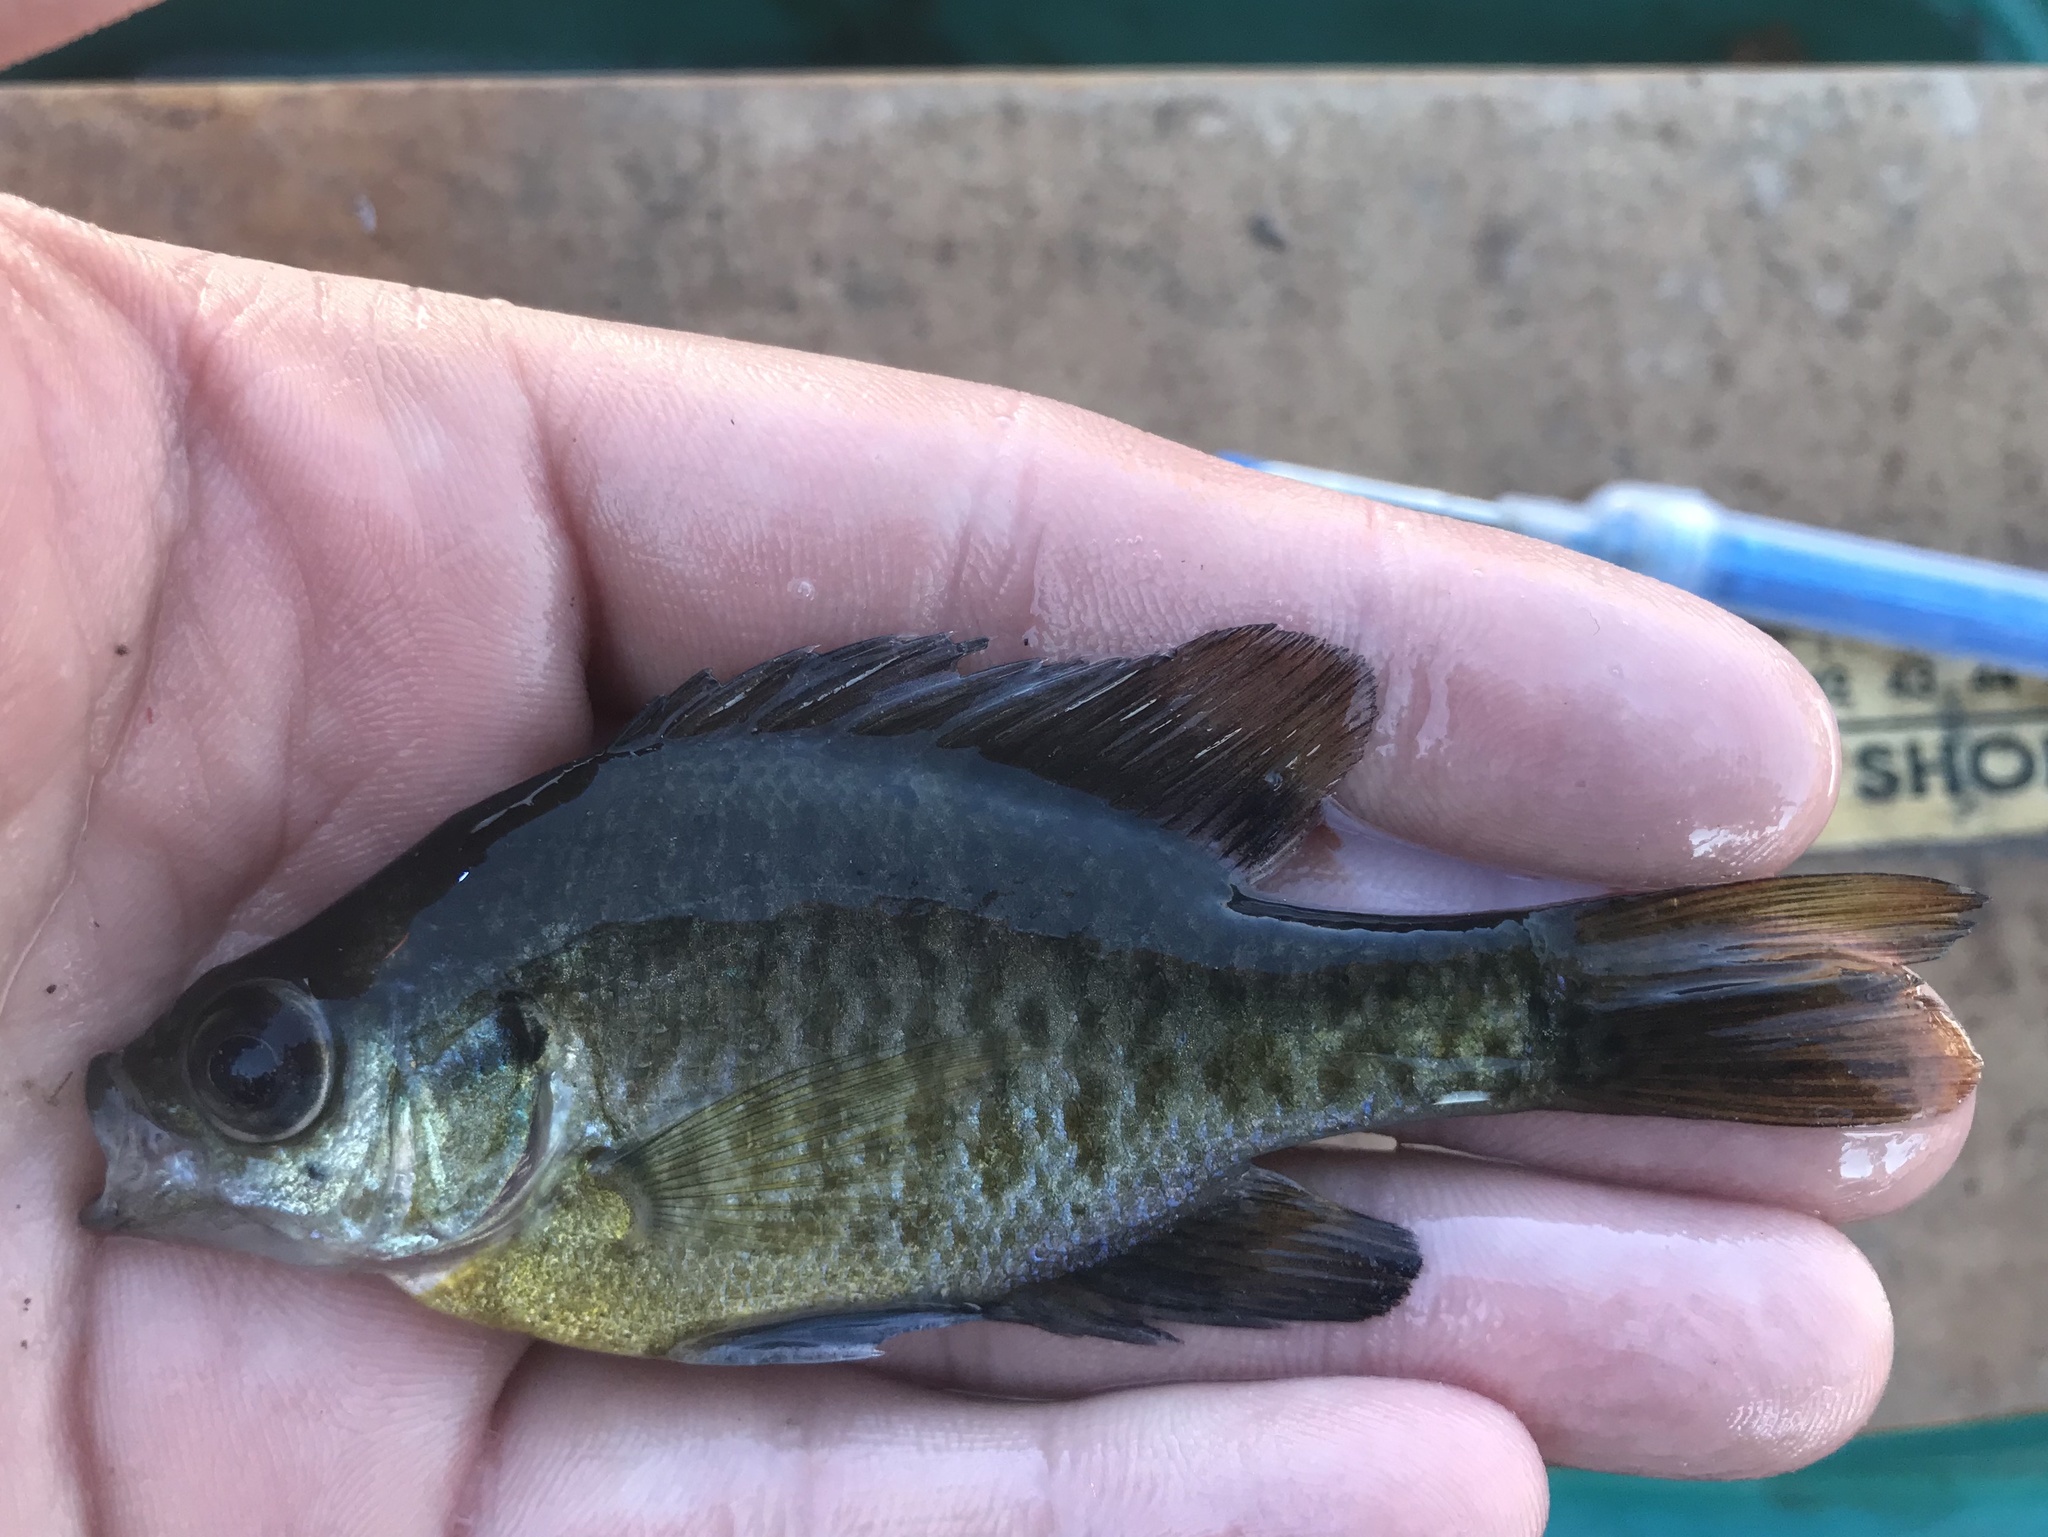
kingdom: Animalia
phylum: Chordata
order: Perciformes
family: Centrarchidae
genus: Lepomis
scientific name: Lepomis macrochirus
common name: Bluegill
